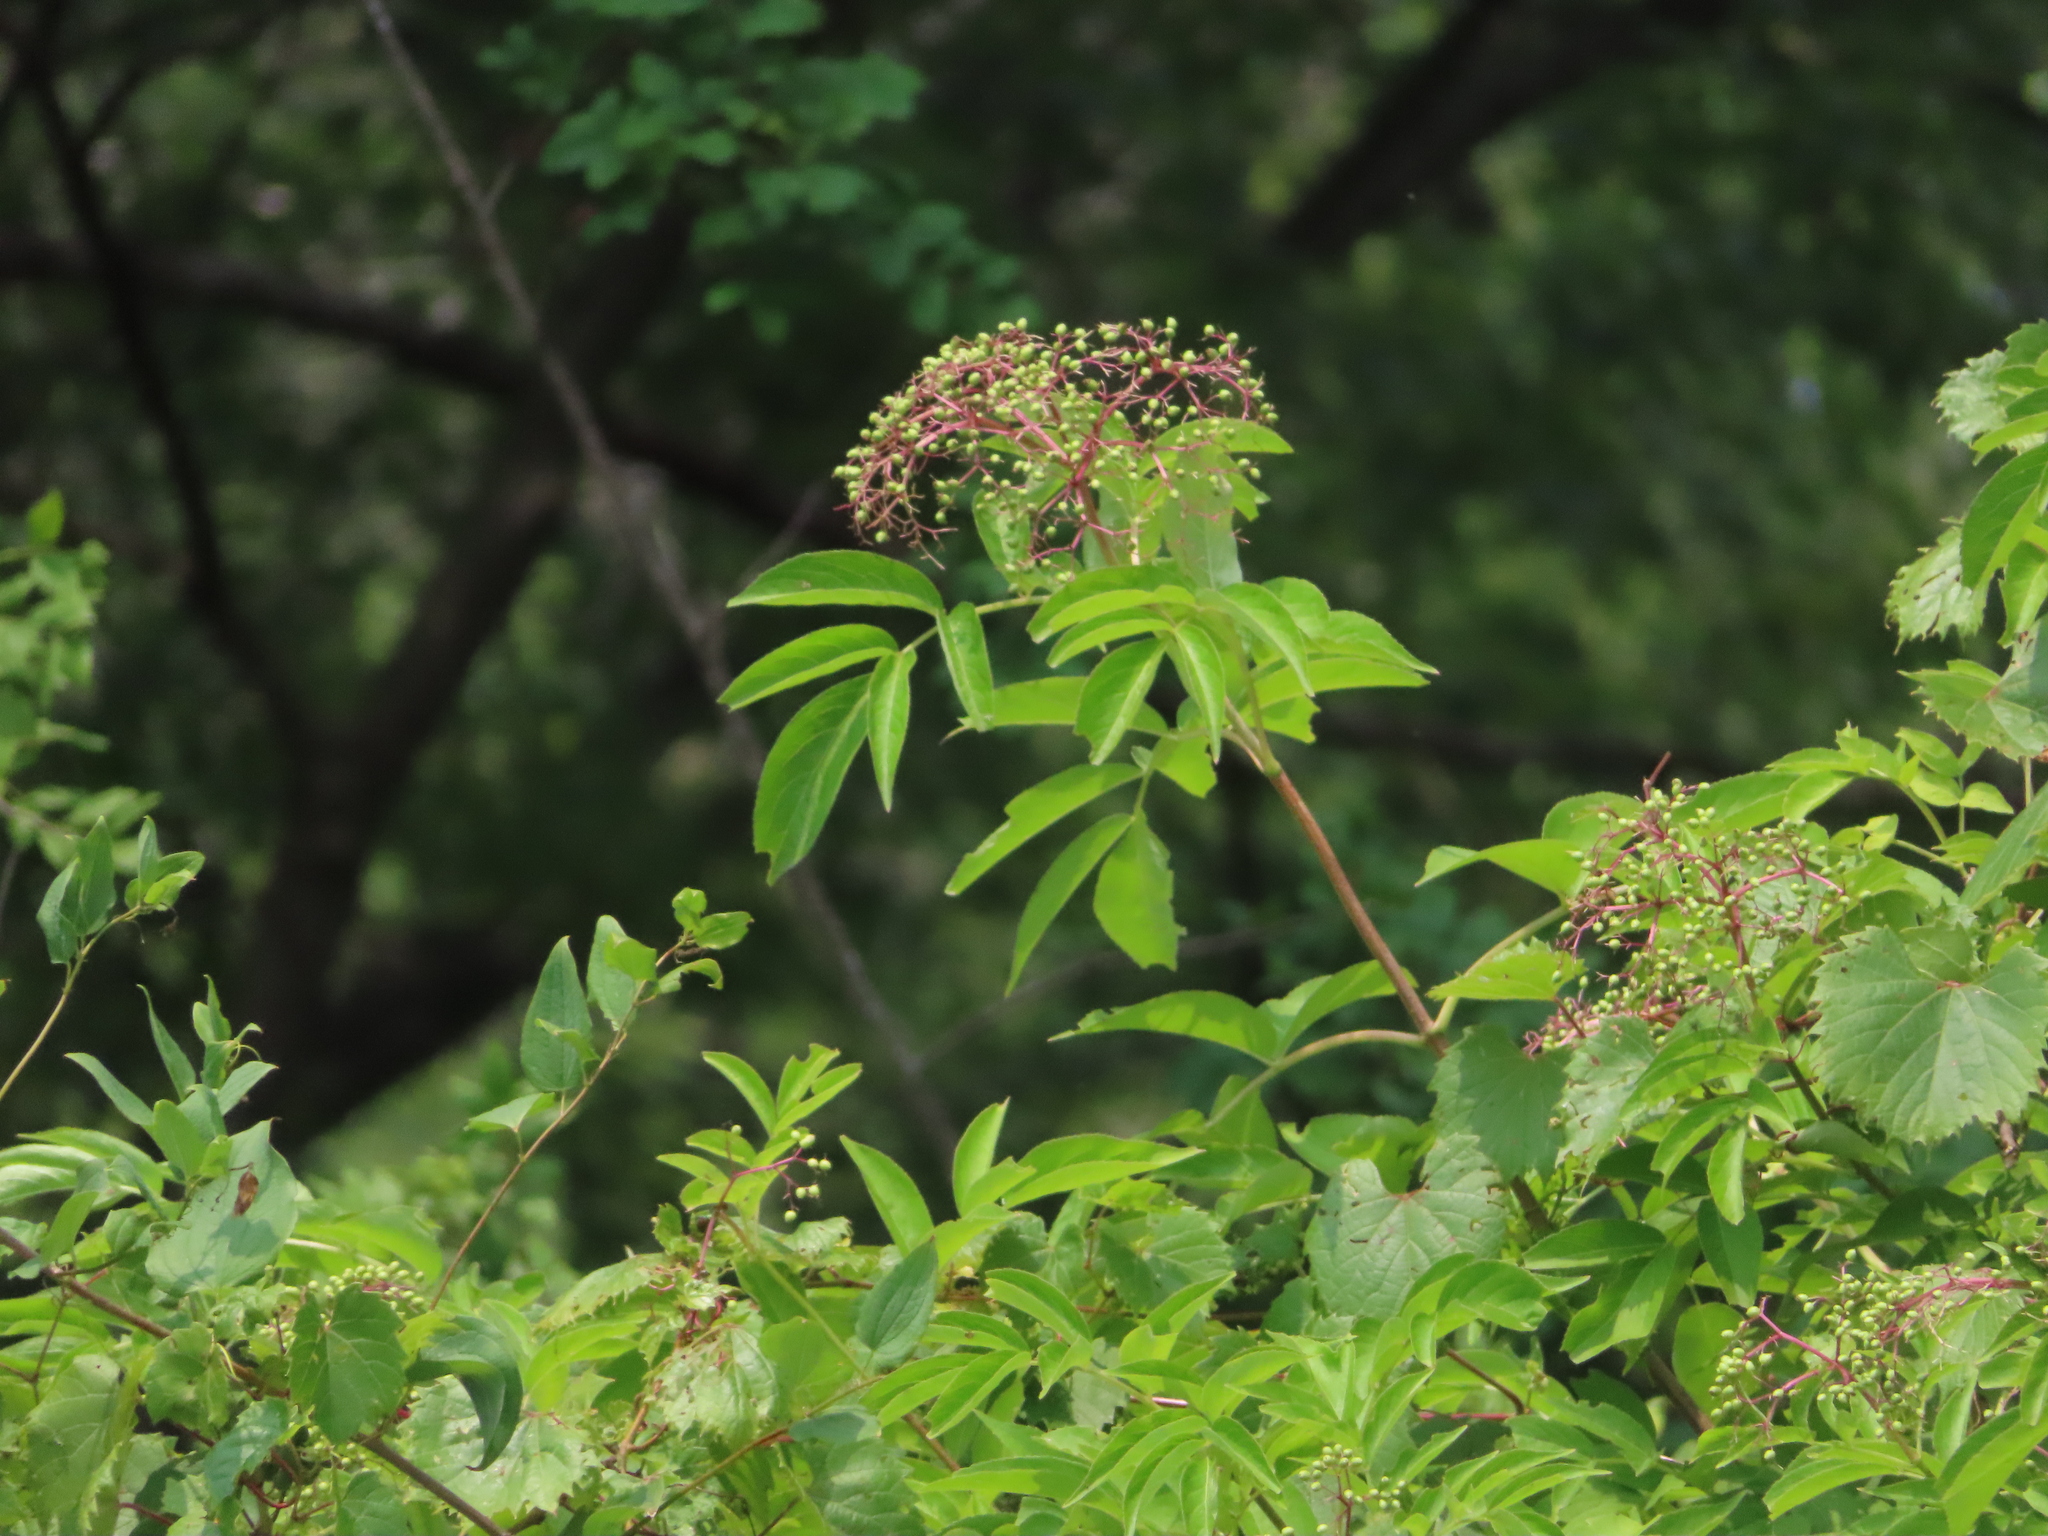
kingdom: Plantae
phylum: Tracheophyta
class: Magnoliopsida
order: Dipsacales
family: Viburnaceae
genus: Sambucus
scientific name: Sambucus canadensis
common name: American elder
